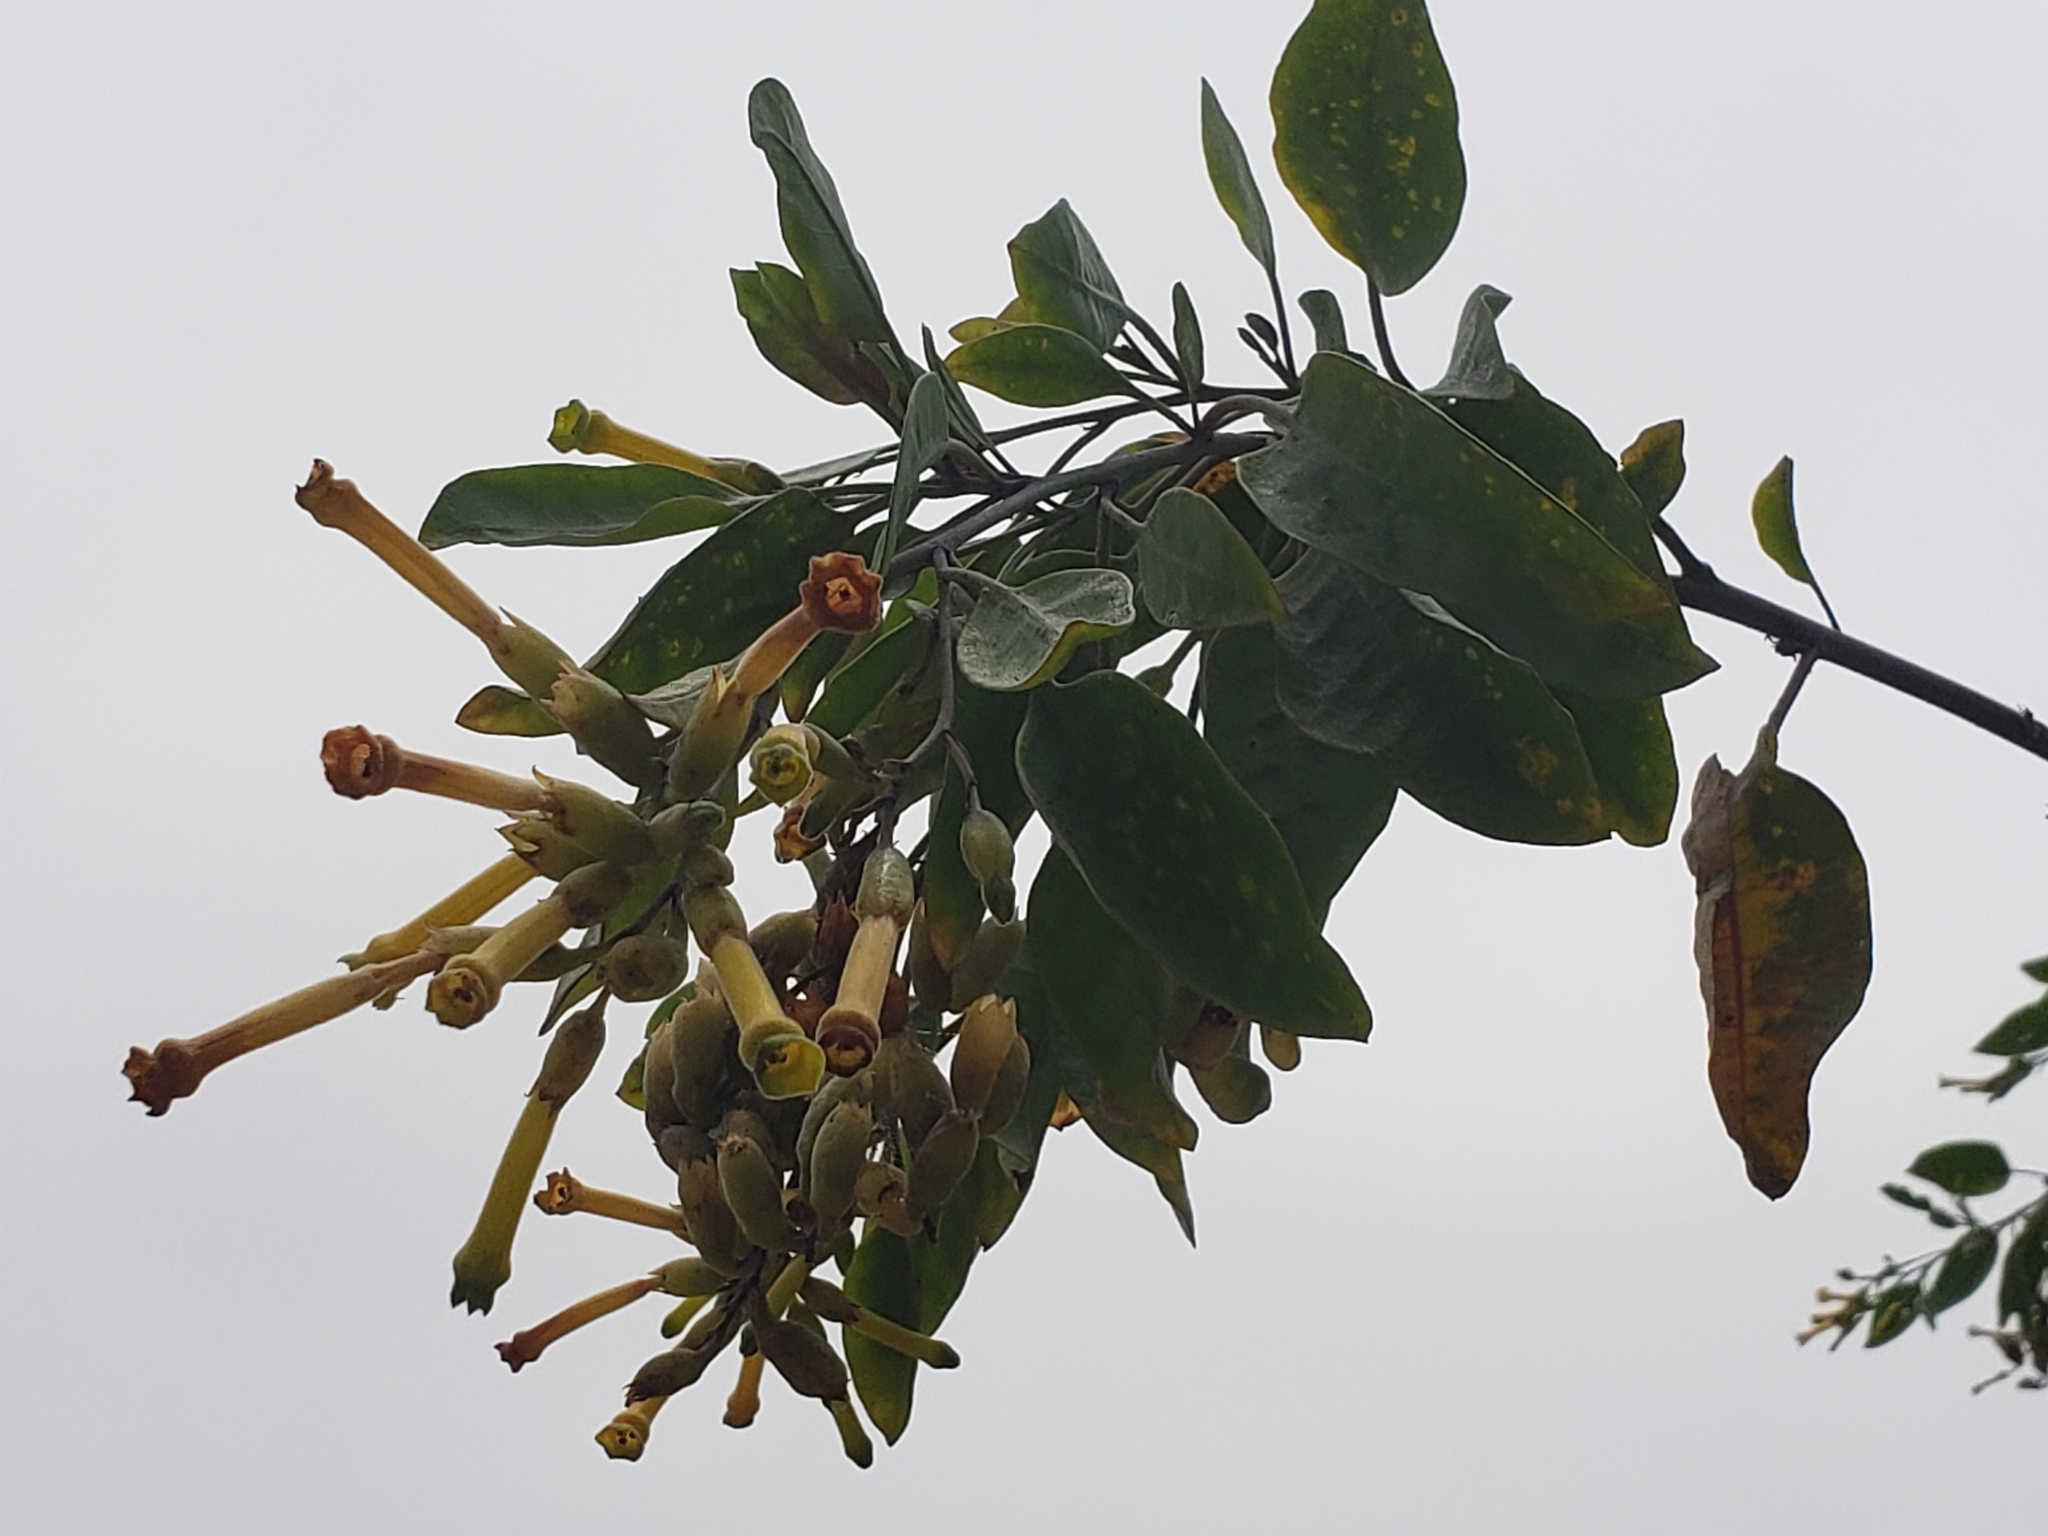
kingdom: Plantae
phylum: Tracheophyta
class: Magnoliopsida
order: Solanales
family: Solanaceae
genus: Nicotiana
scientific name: Nicotiana glauca
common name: Tree tobacco
